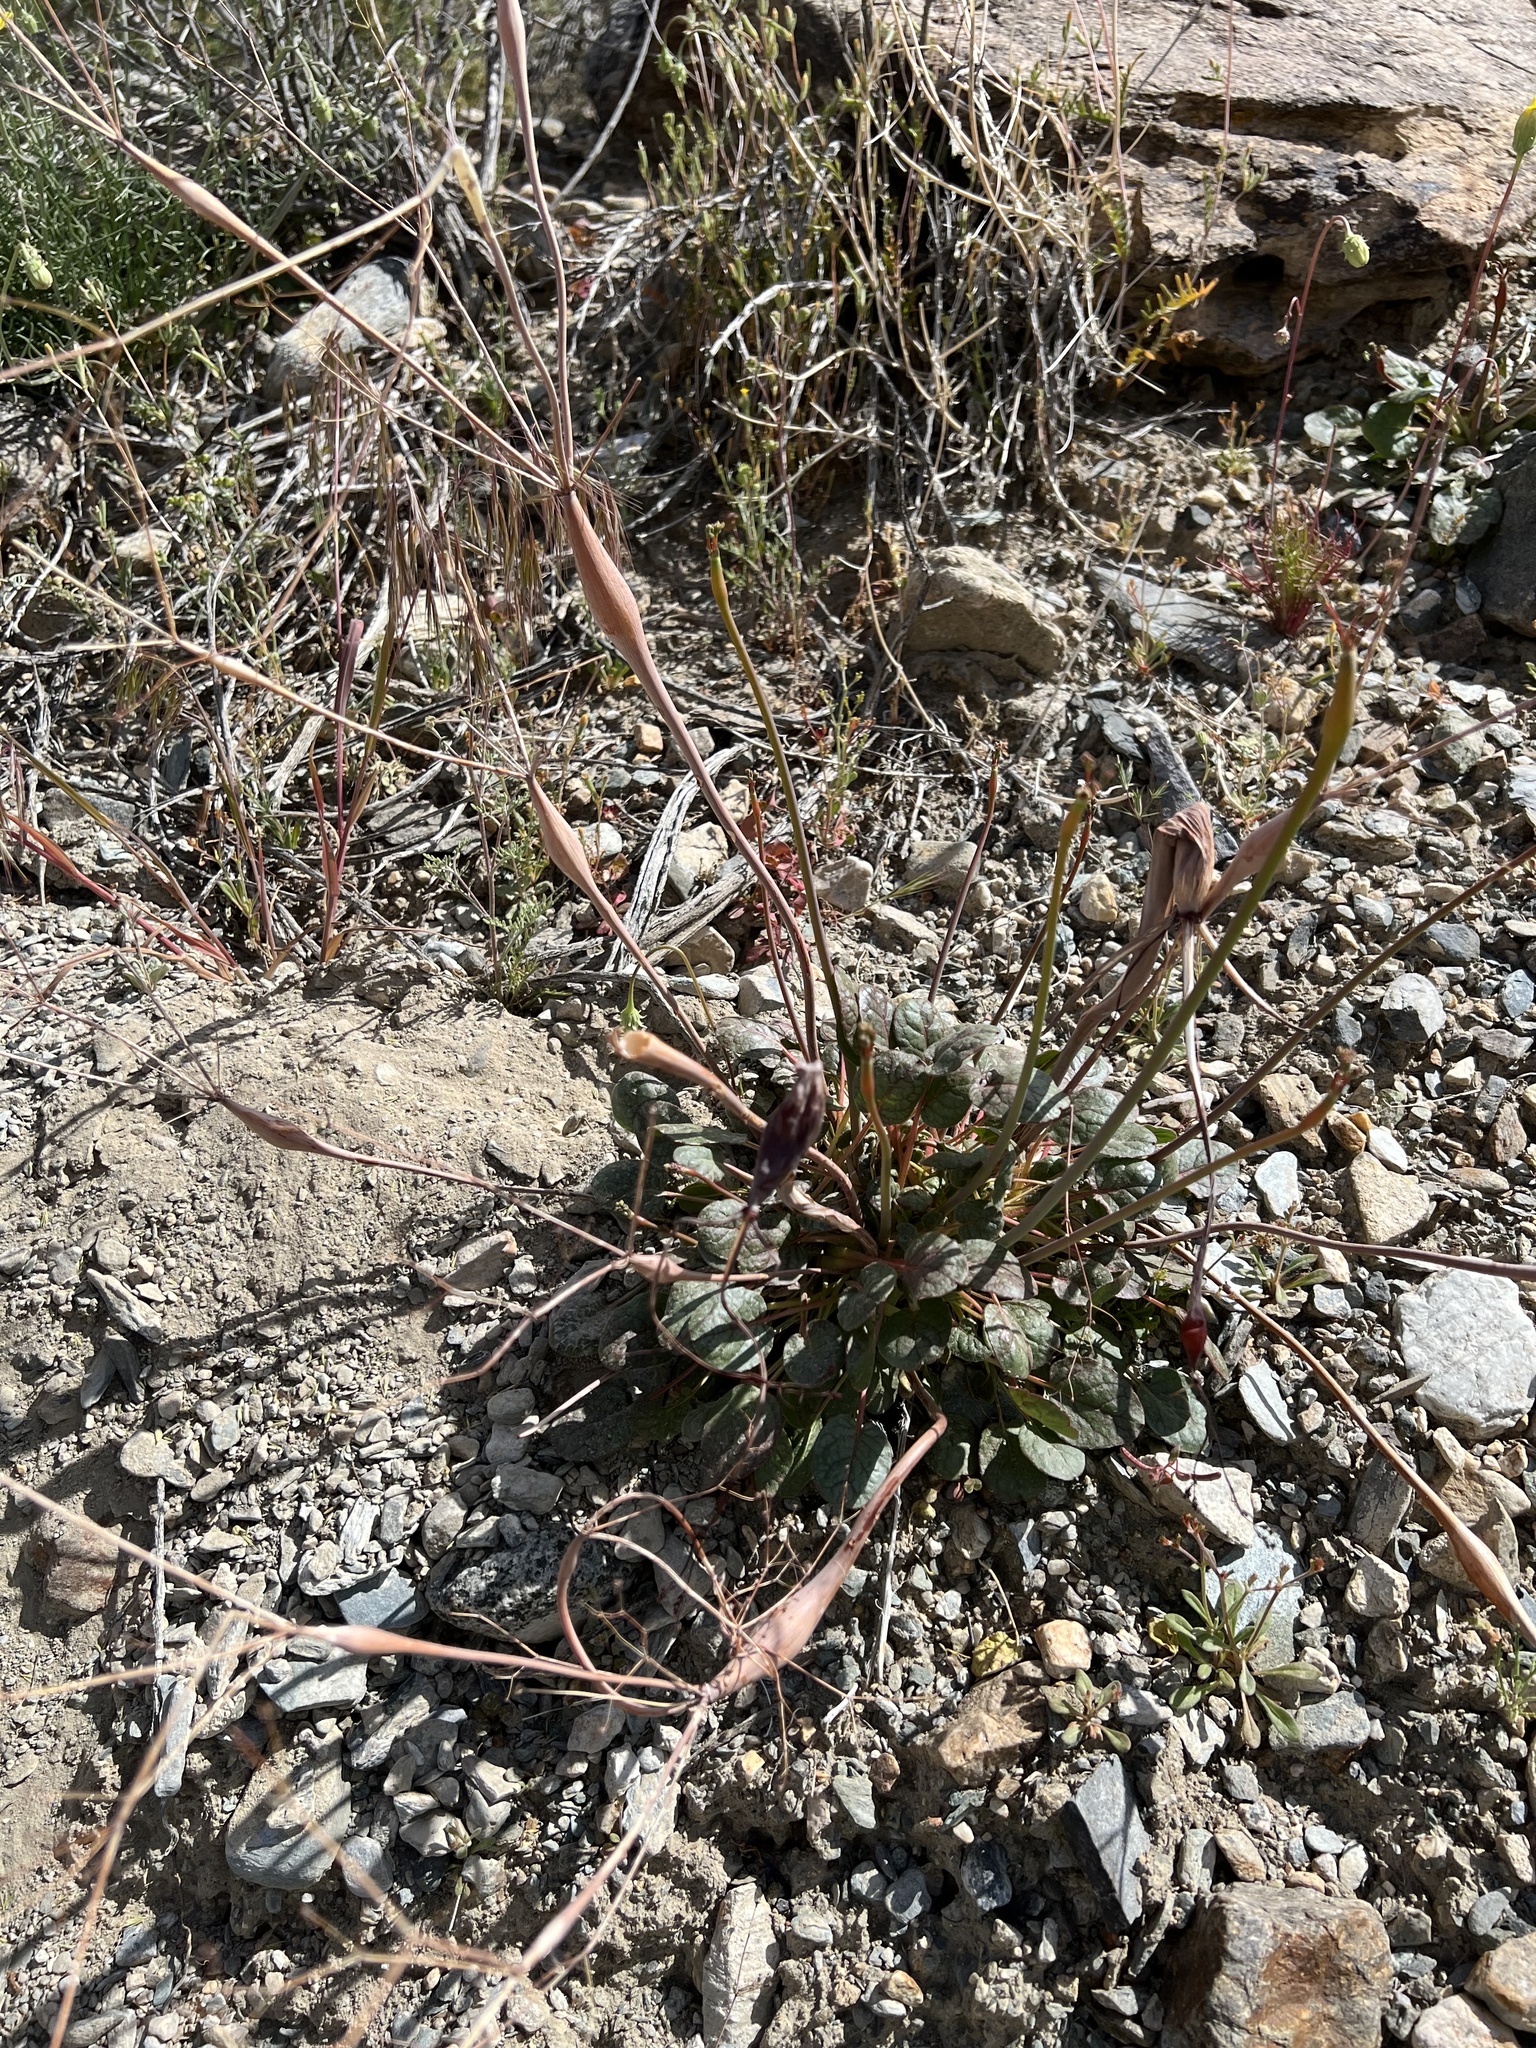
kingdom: Plantae
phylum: Tracheophyta
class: Magnoliopsida
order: Caryophyllales
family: Polygonaceae
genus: Eriogonum
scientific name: Eriogonum inflatum
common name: Desert trumpet
